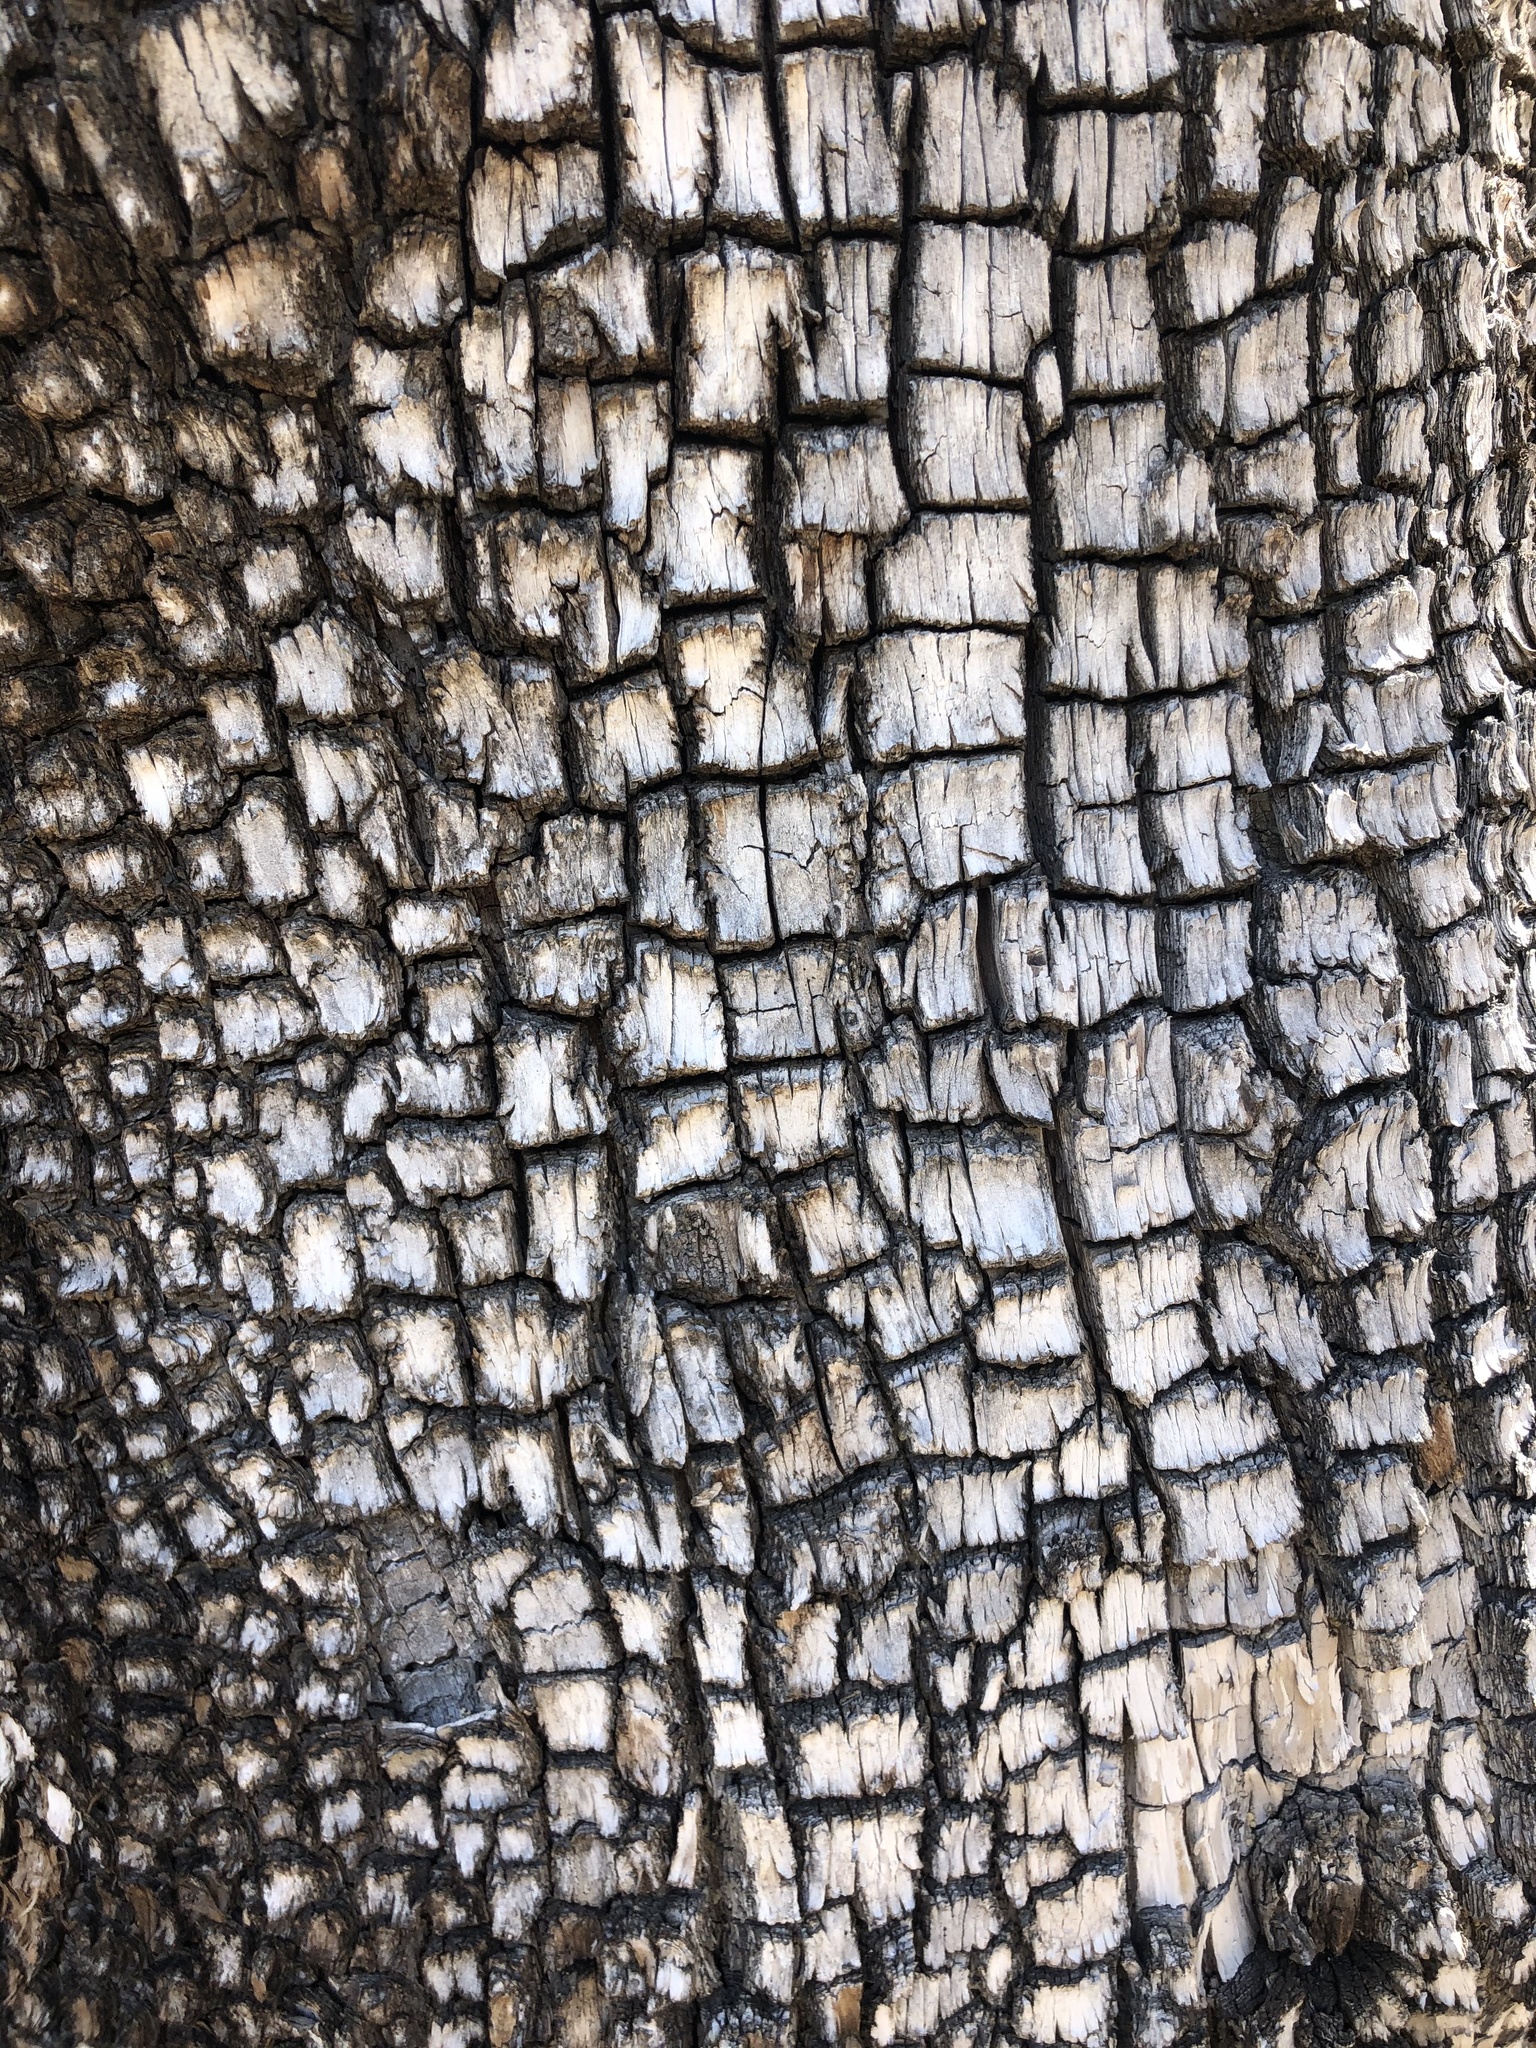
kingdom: Plantae
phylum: Tracheophyta
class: Pinopsida
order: Pinales
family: Cupressaceae
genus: Juniperus
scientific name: Juniperus deppeana
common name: Alligator juniper
